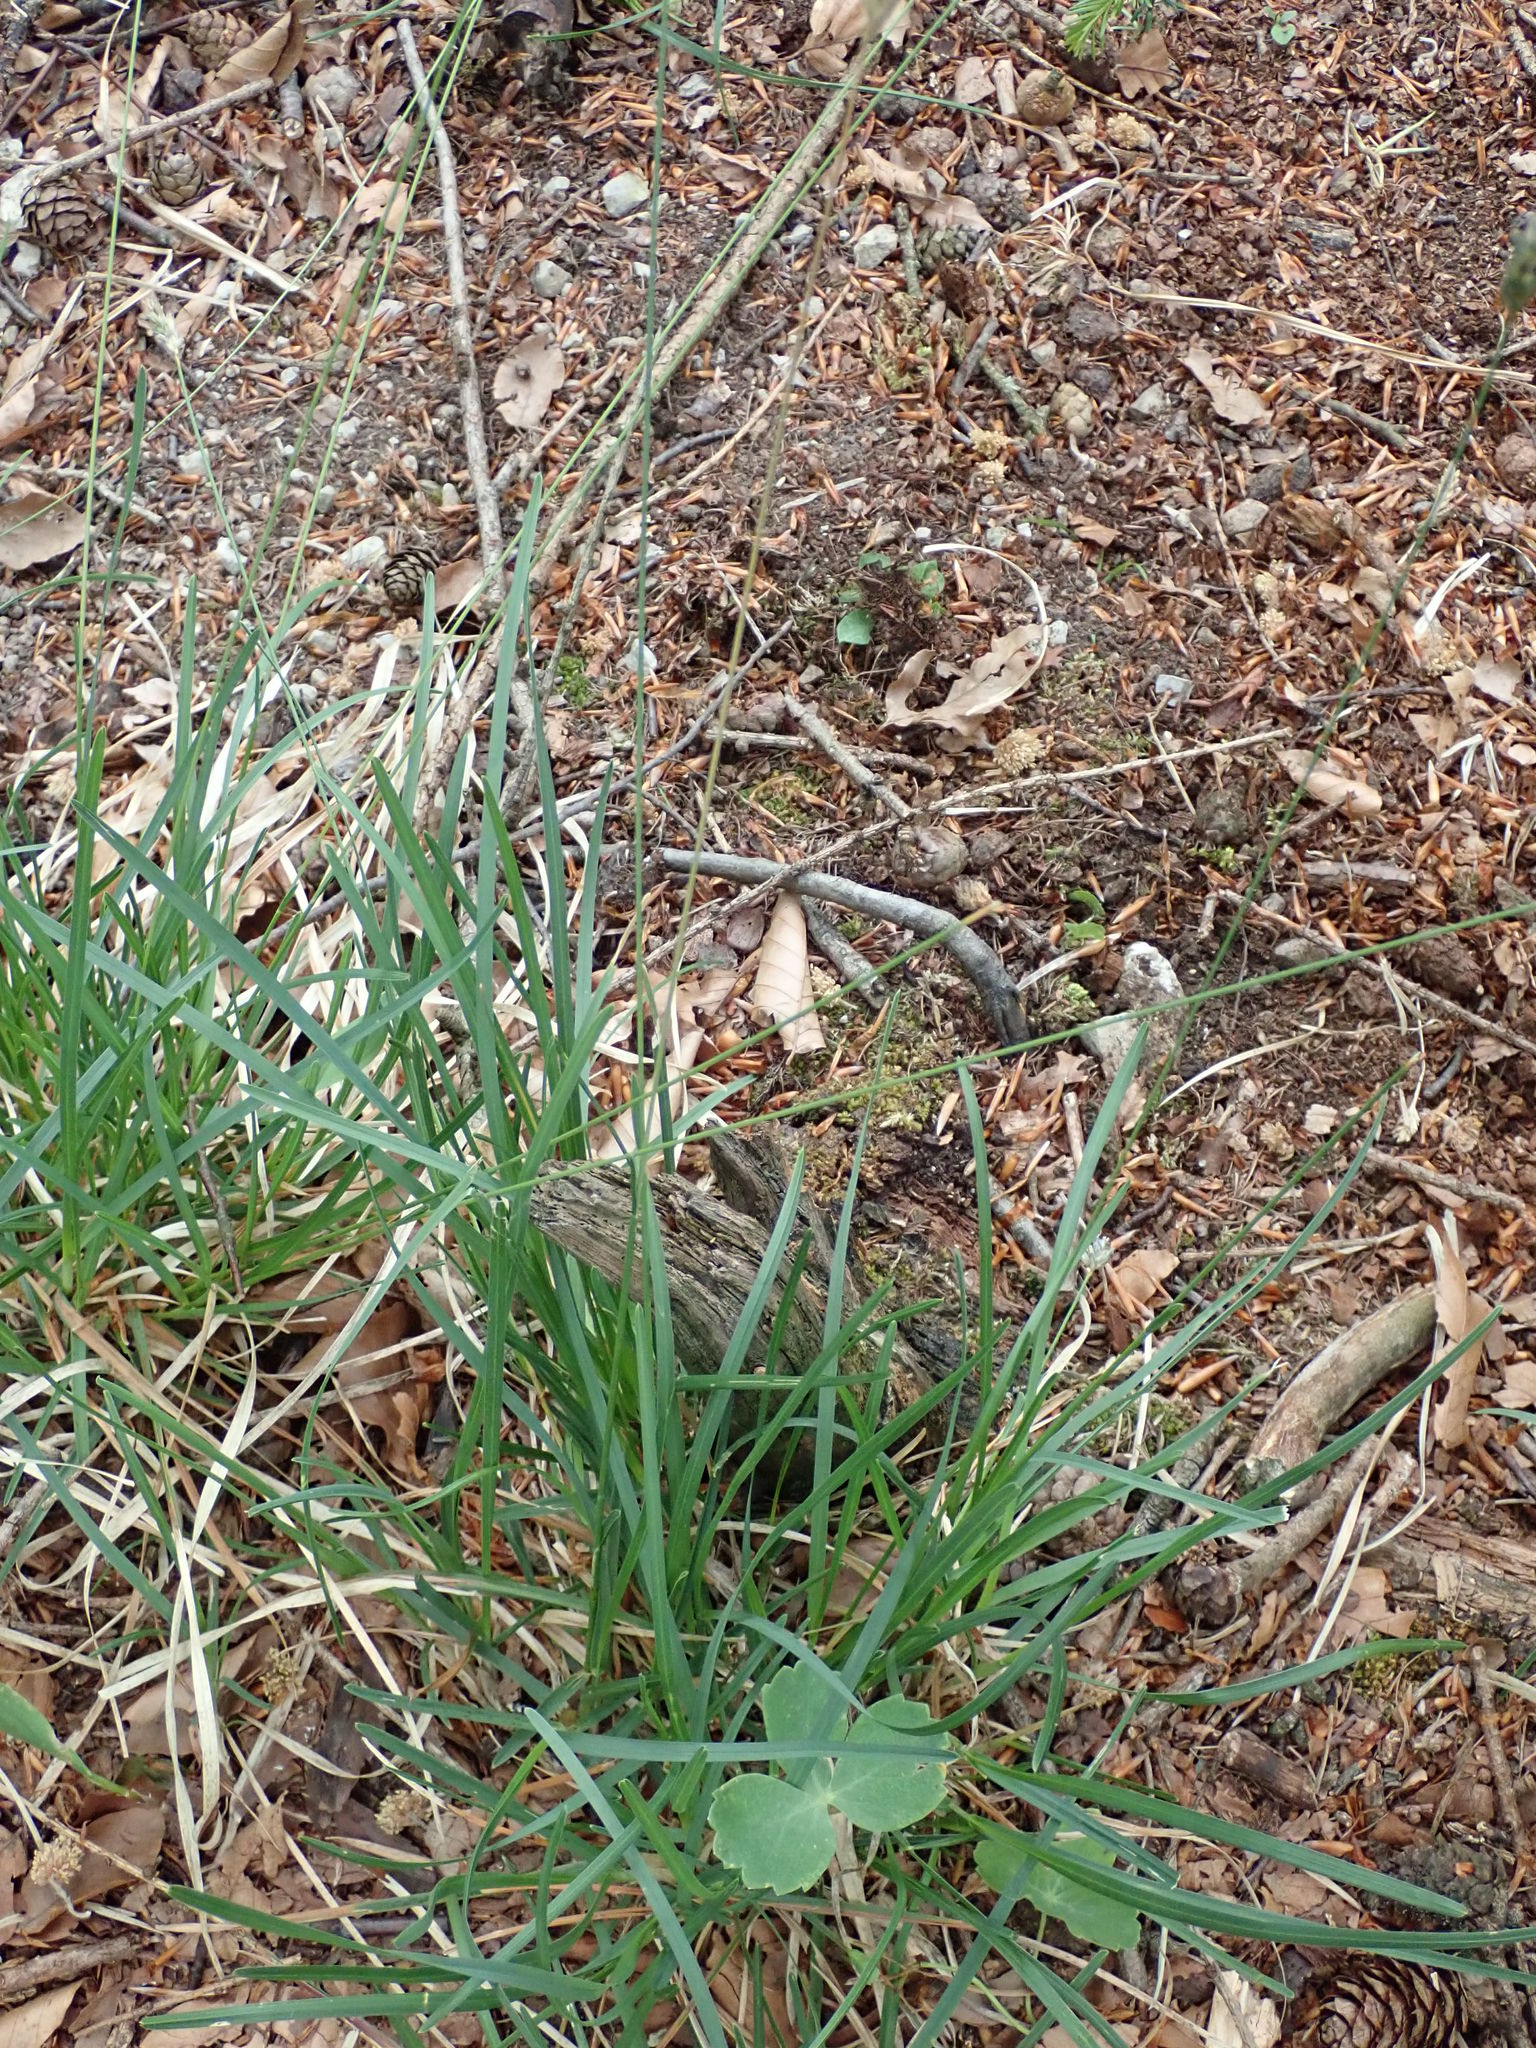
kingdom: Plantae
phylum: Tracheophyta
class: Liliopsida
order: Poales
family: Poaceae
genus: Sesleria
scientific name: Sesleria caerulea
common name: Blue moor-grass
